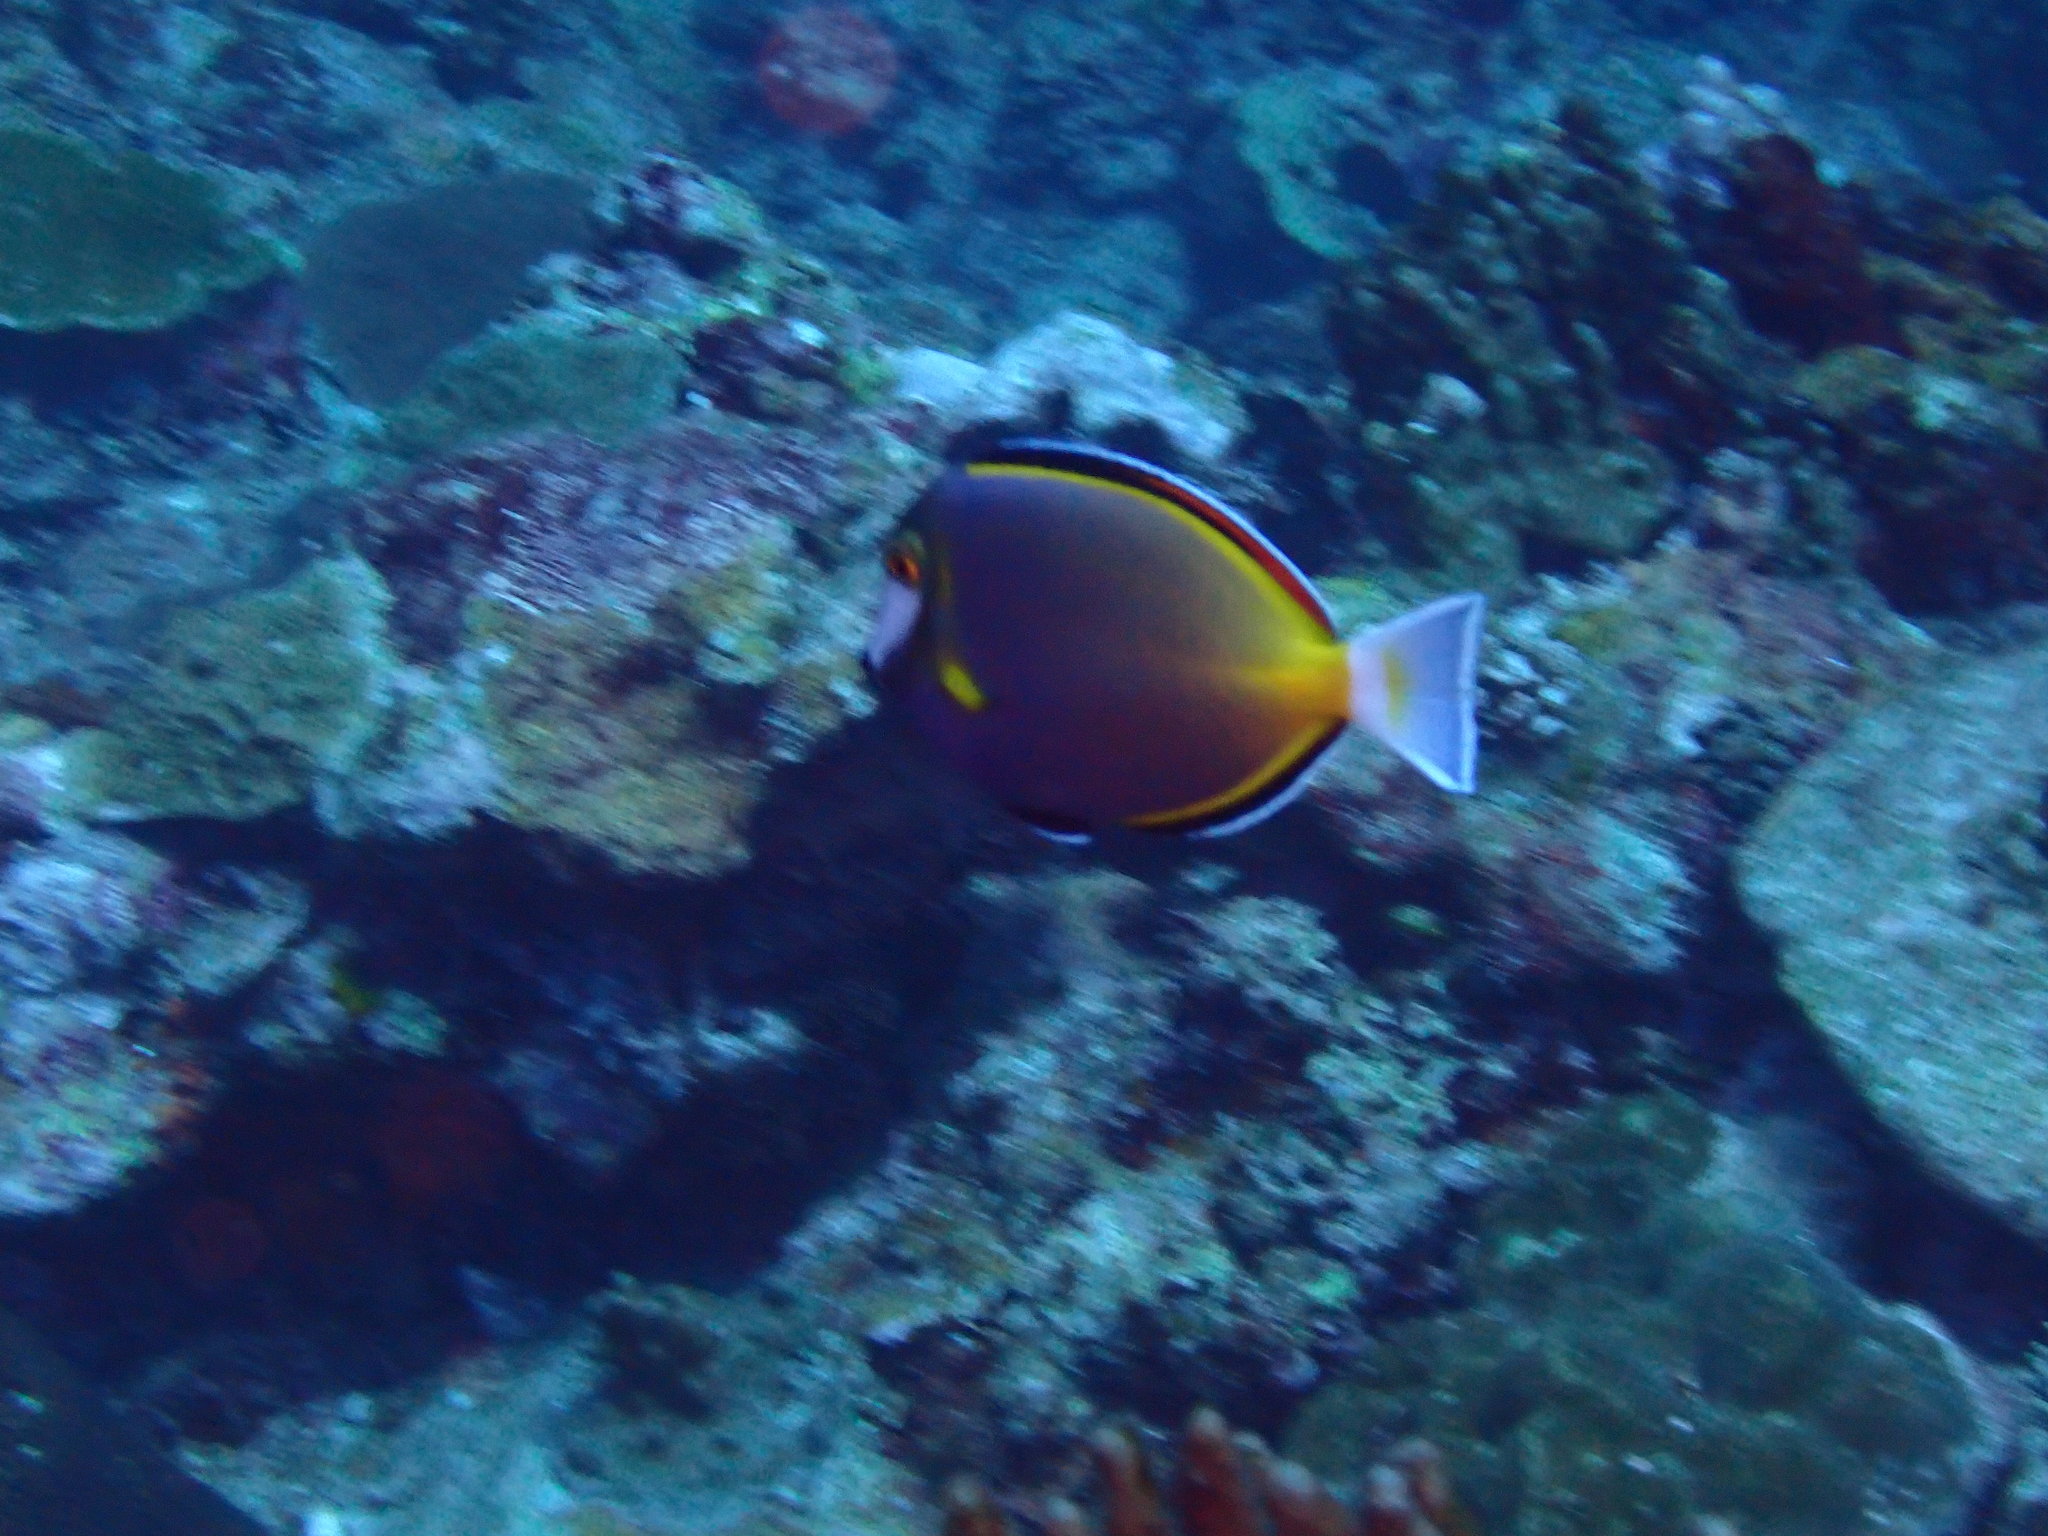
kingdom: Animalia
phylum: Chordata
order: Perciformes
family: Acanthuridae
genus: Acanthurus
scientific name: Acanthurus japonicus
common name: Japanese surgeonfish
